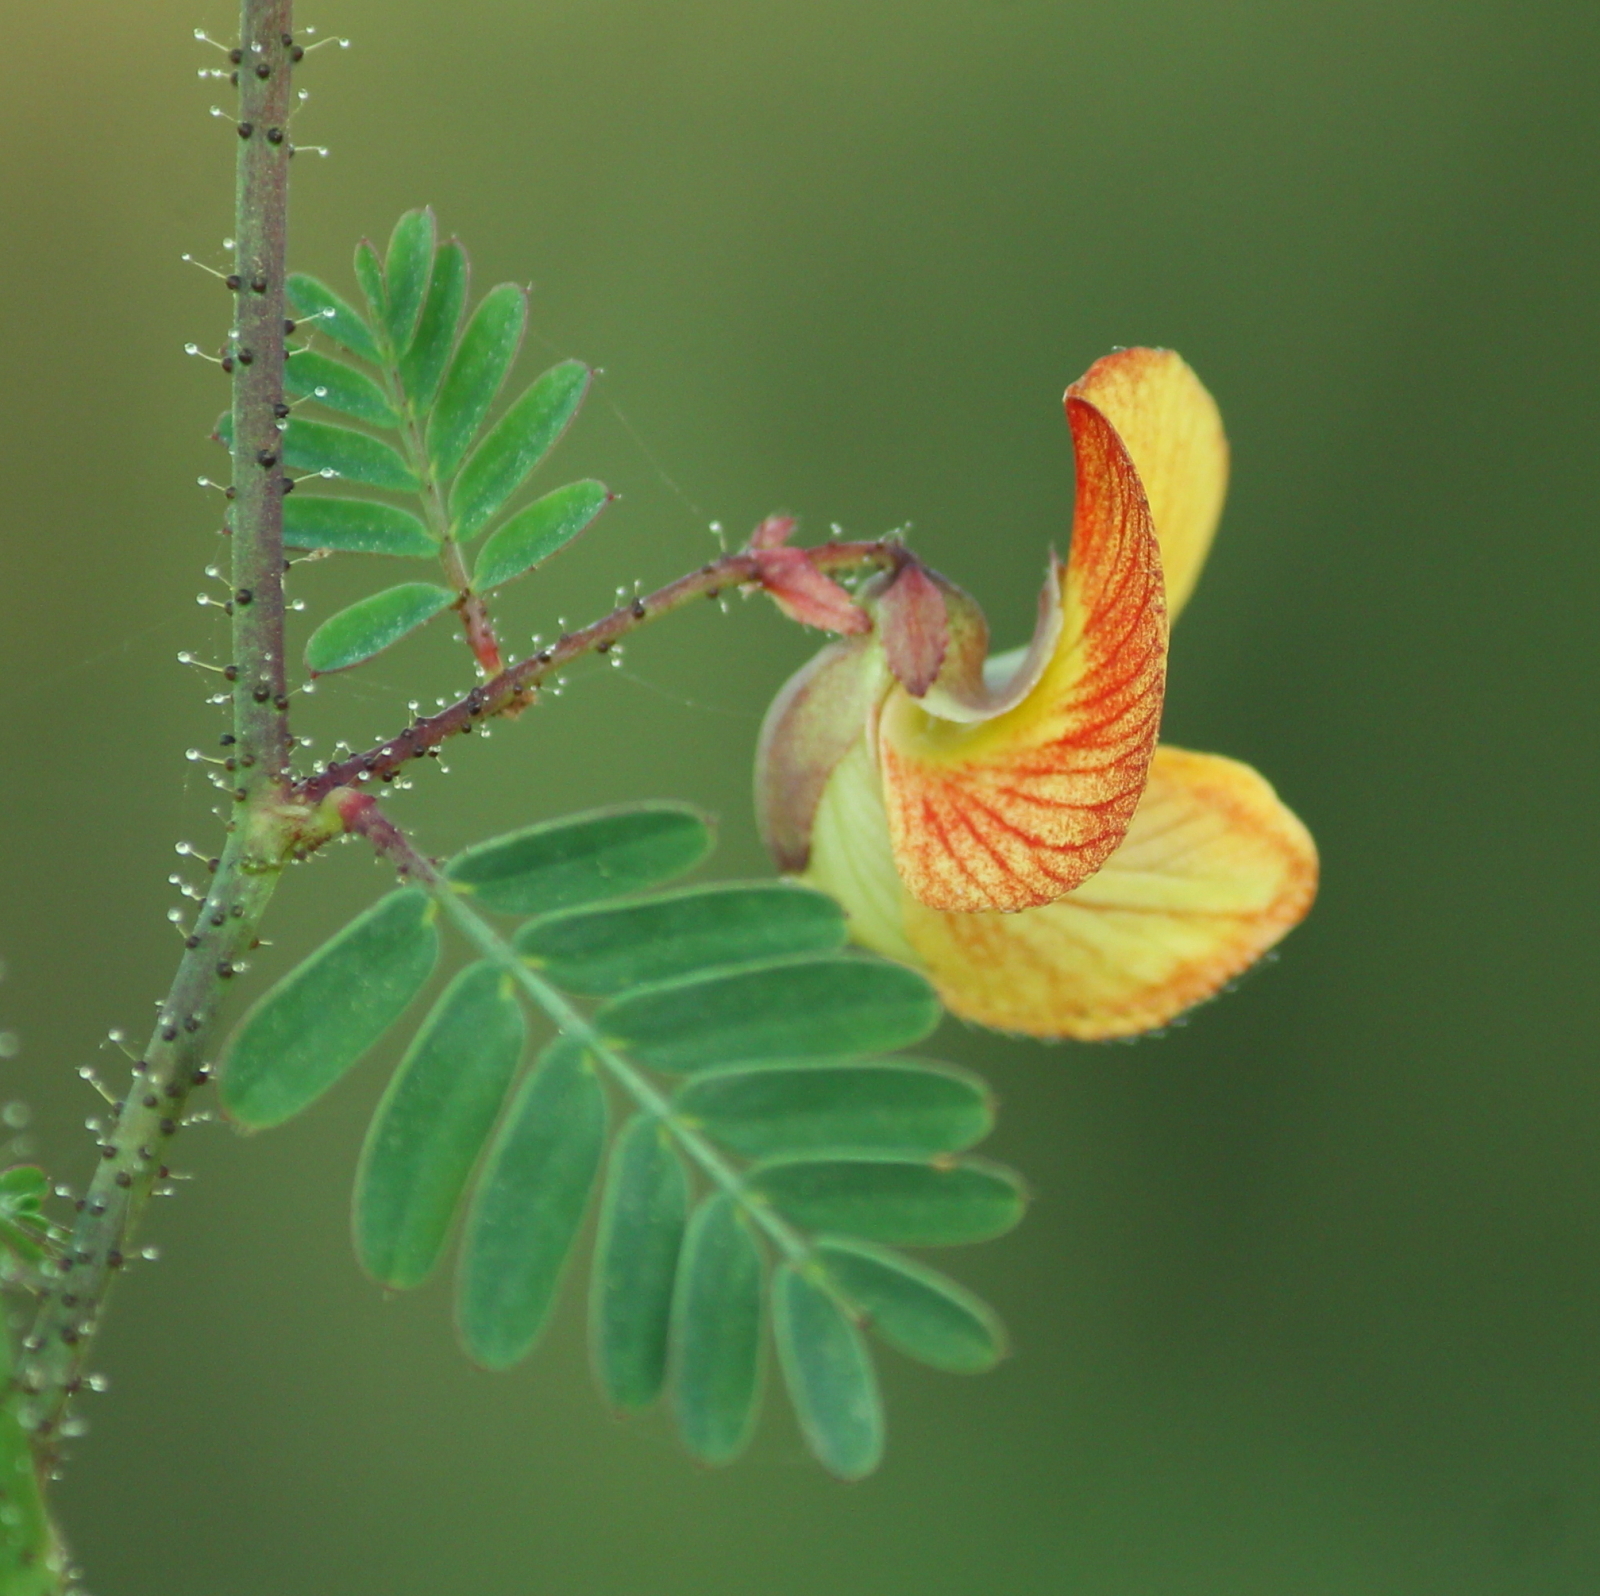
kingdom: Plantae
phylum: Tracheophyta
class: Magnoliopsida
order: Fabales
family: Fabaceae
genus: Aeschynomene
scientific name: Aeschynomene indica
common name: Indian jointvetch
